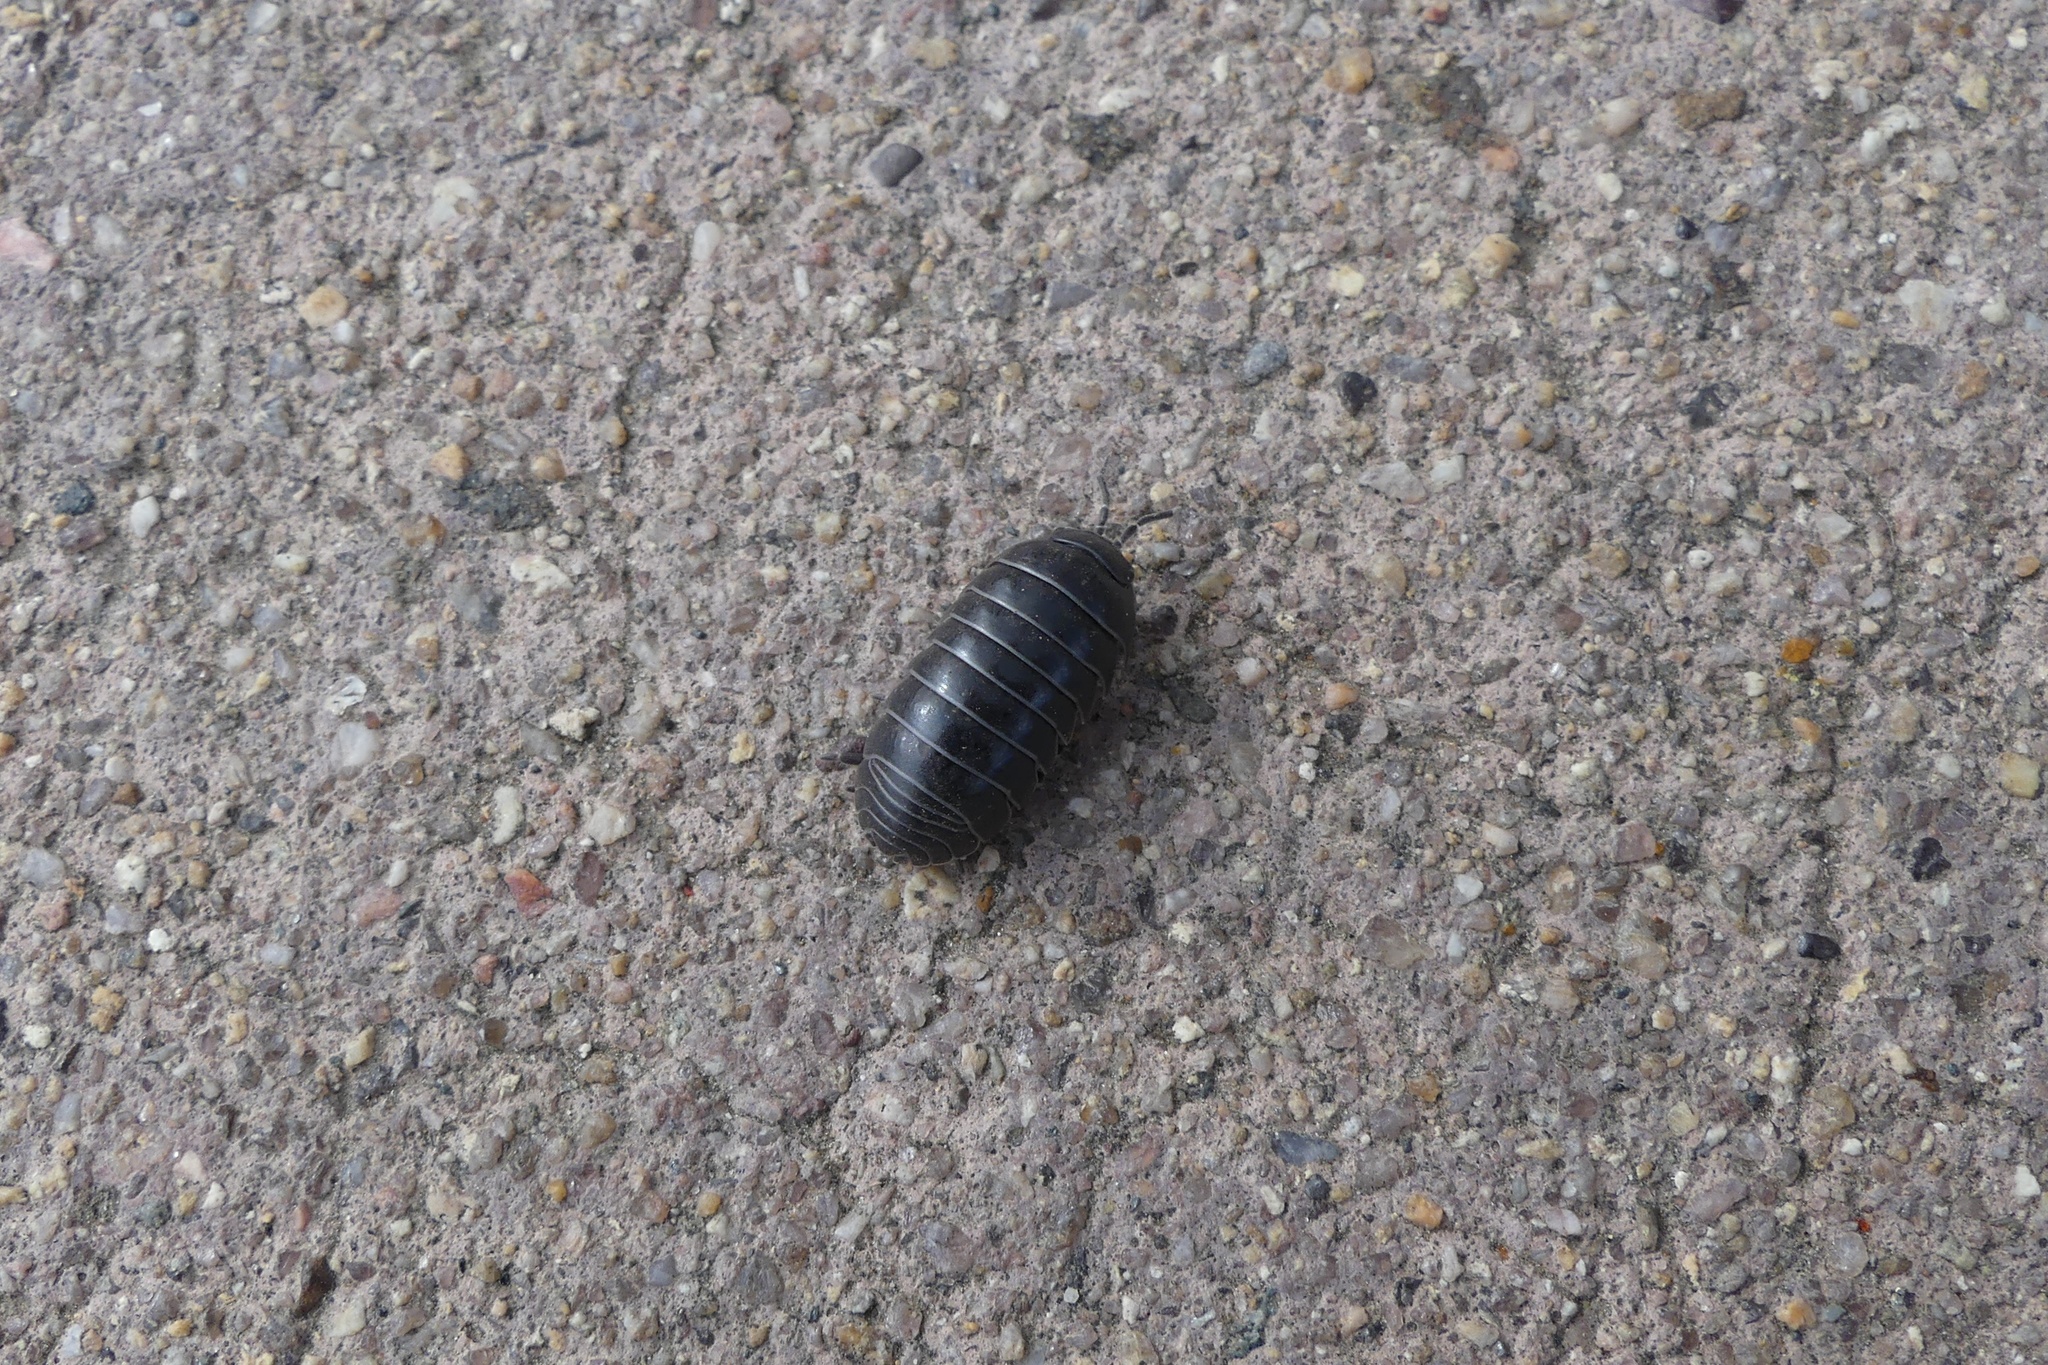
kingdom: Animalia
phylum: Arthropoda
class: Malacostraca
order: Isopoda
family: Armadillidiidae
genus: Armadillidium
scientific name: Armadillidium vulgare
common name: Common pill woodlouse
